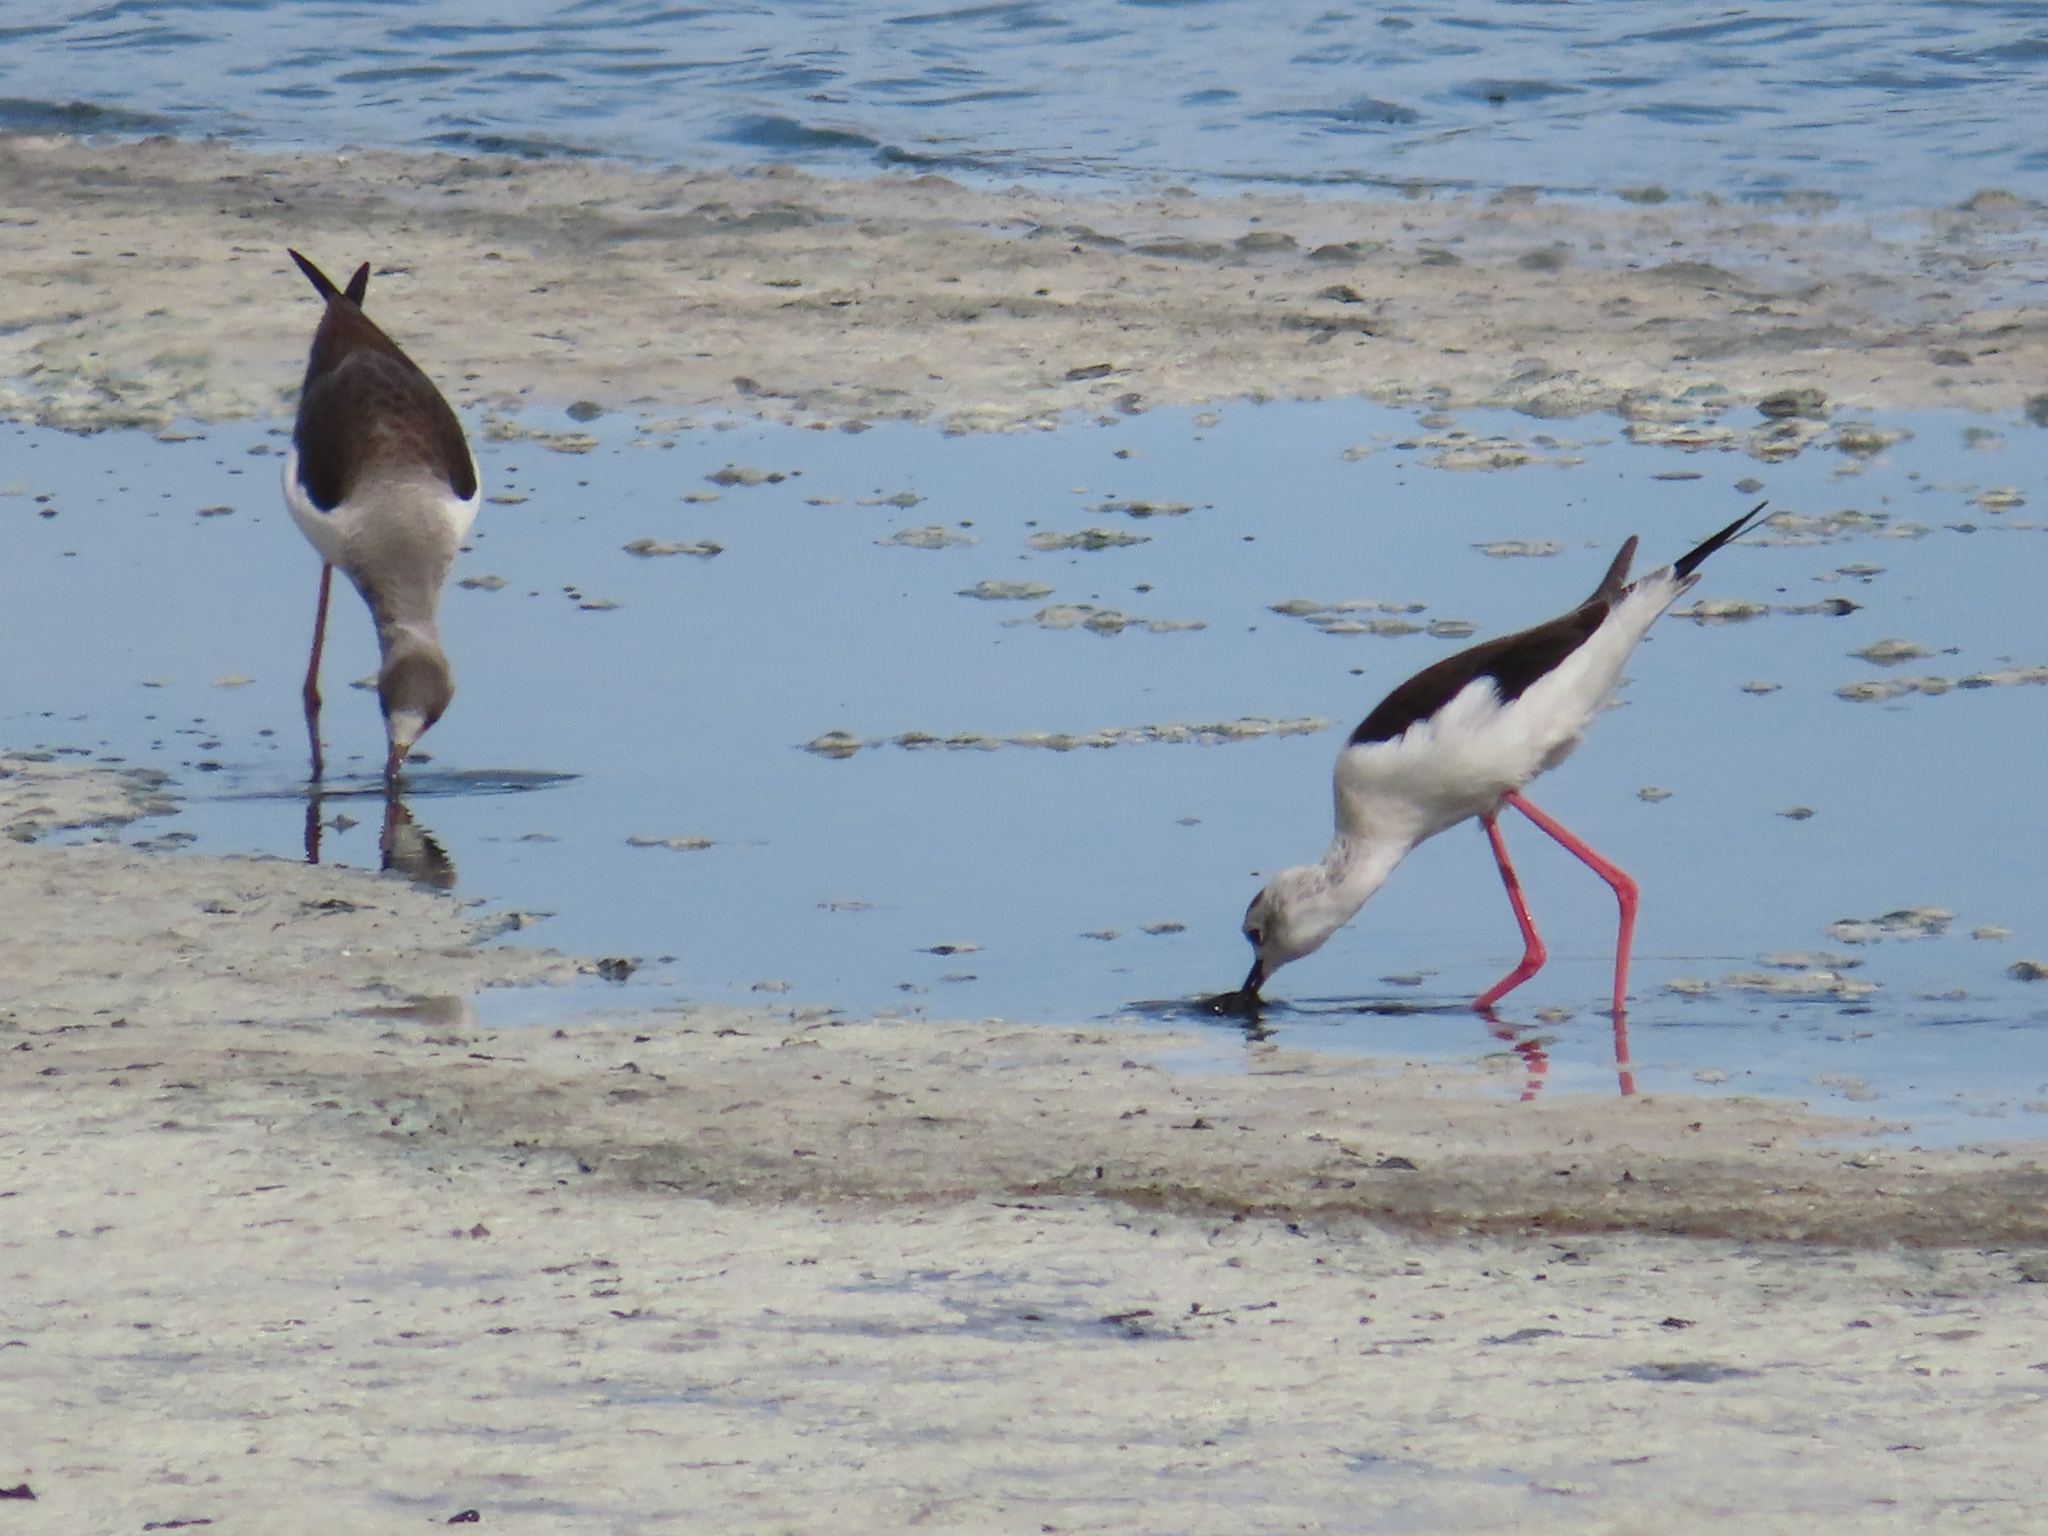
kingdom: Animalia
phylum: Chordata
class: Aves
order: Charadriiformes
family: Recurvirostridae
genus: Himantopus
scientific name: Himantopus himantopus
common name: Black-winged stilt
